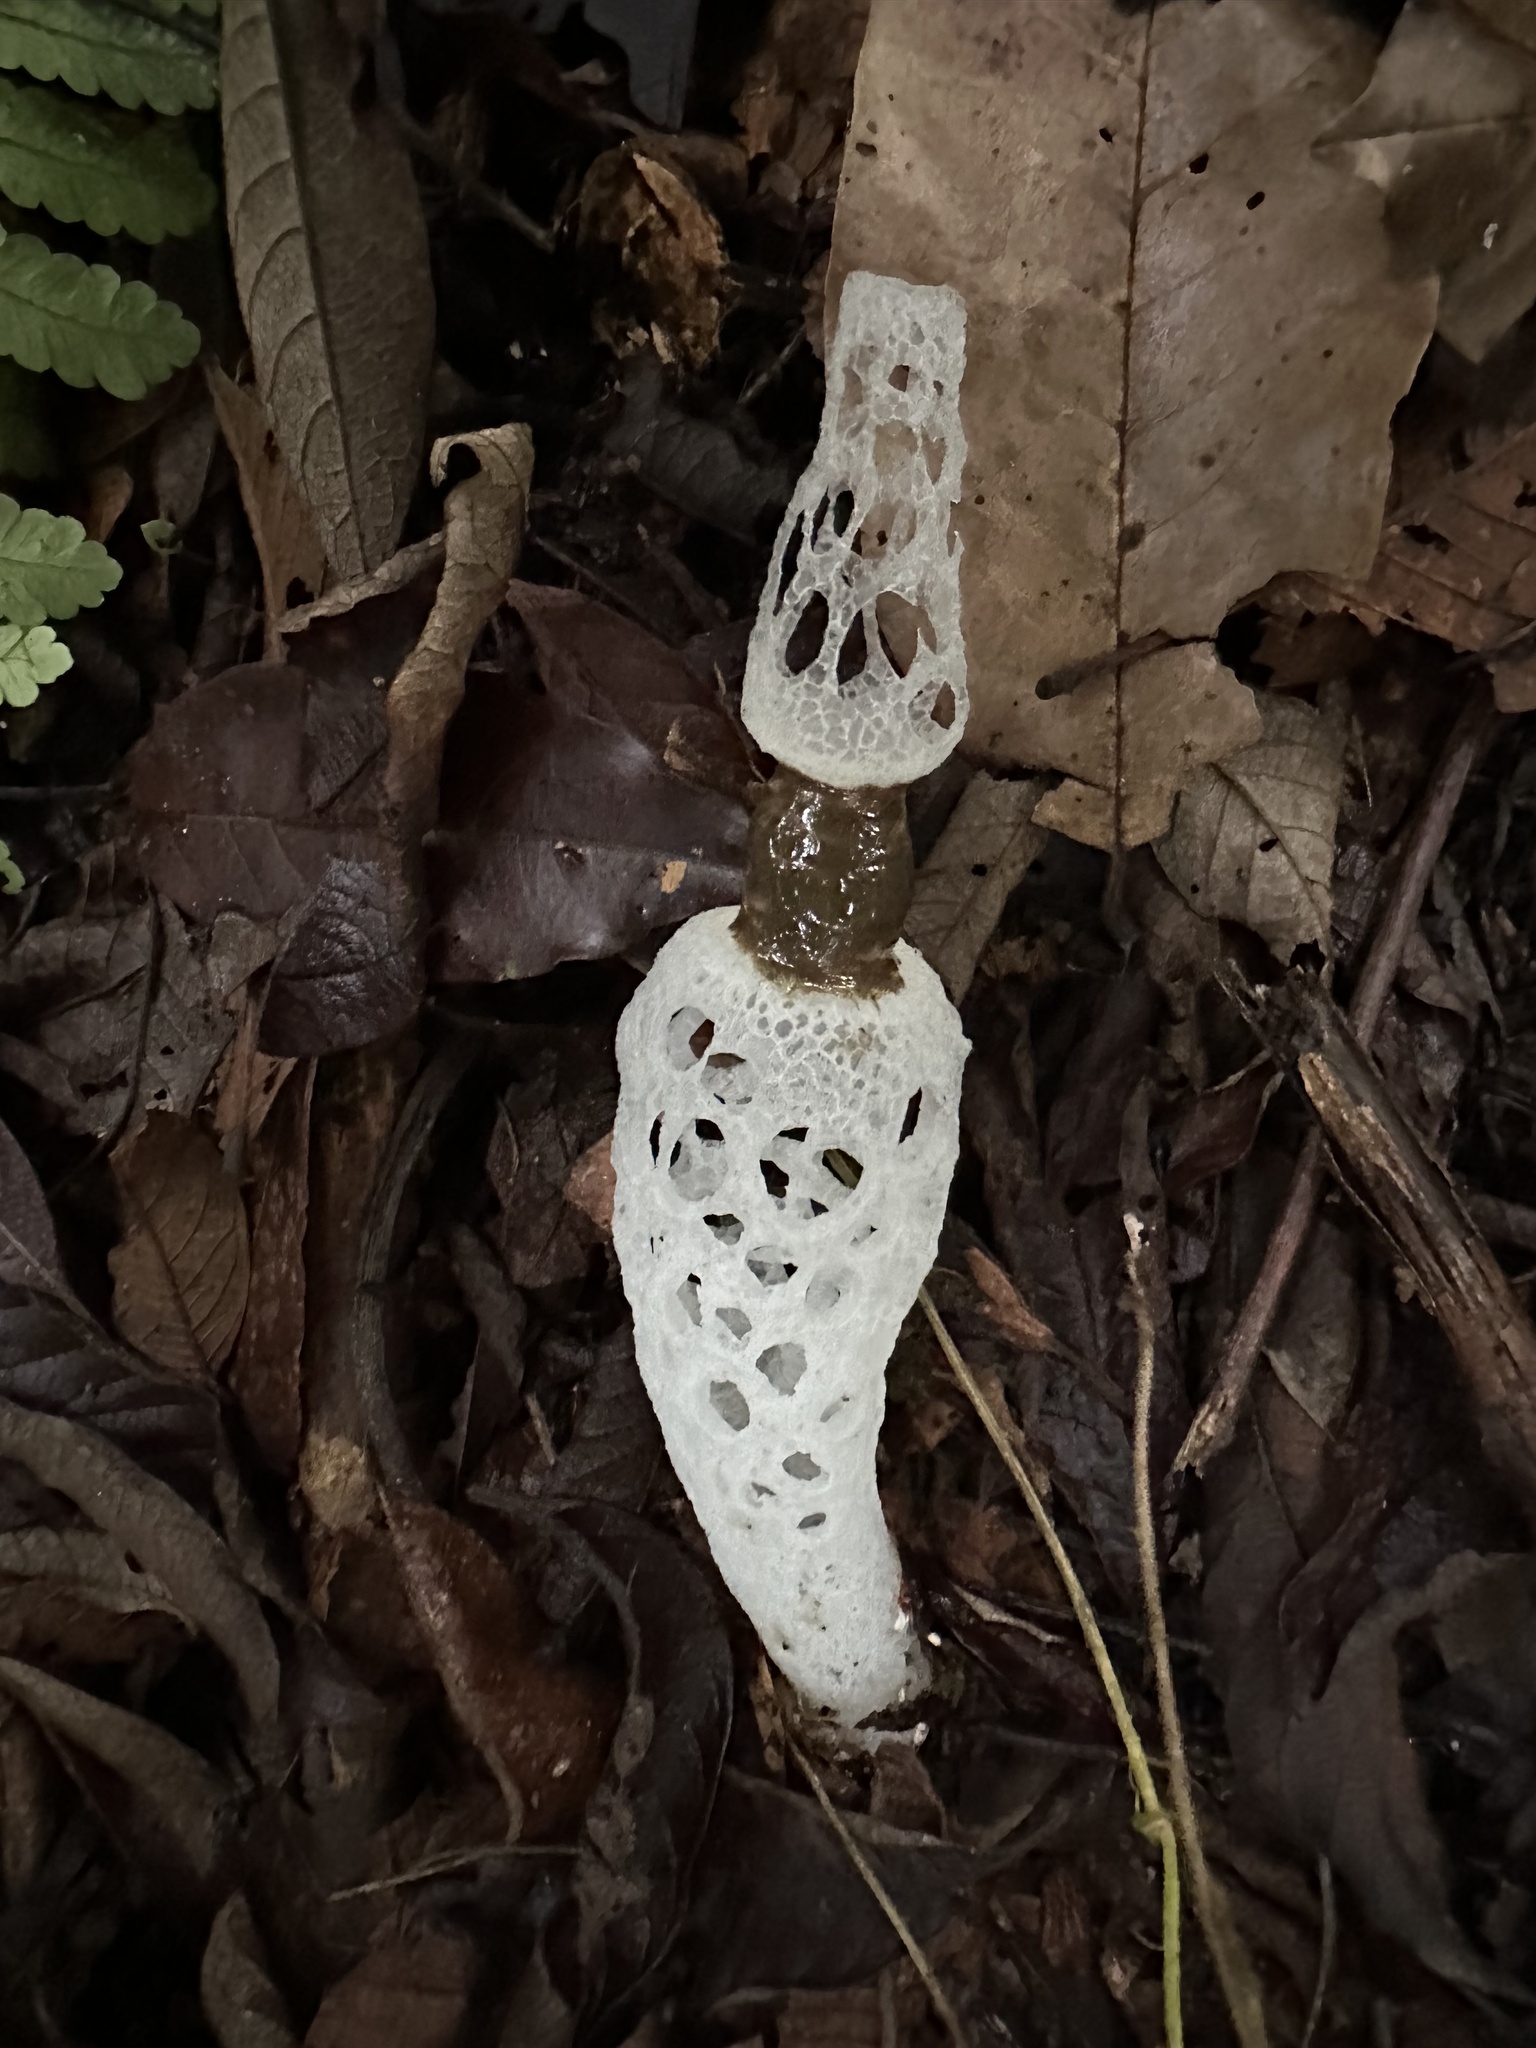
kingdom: Fungi
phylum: Basidiomycota
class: Agaricomycetes
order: Phallales
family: Phallaceae
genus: Staheliomyces
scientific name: Staheliomyces quadratus
